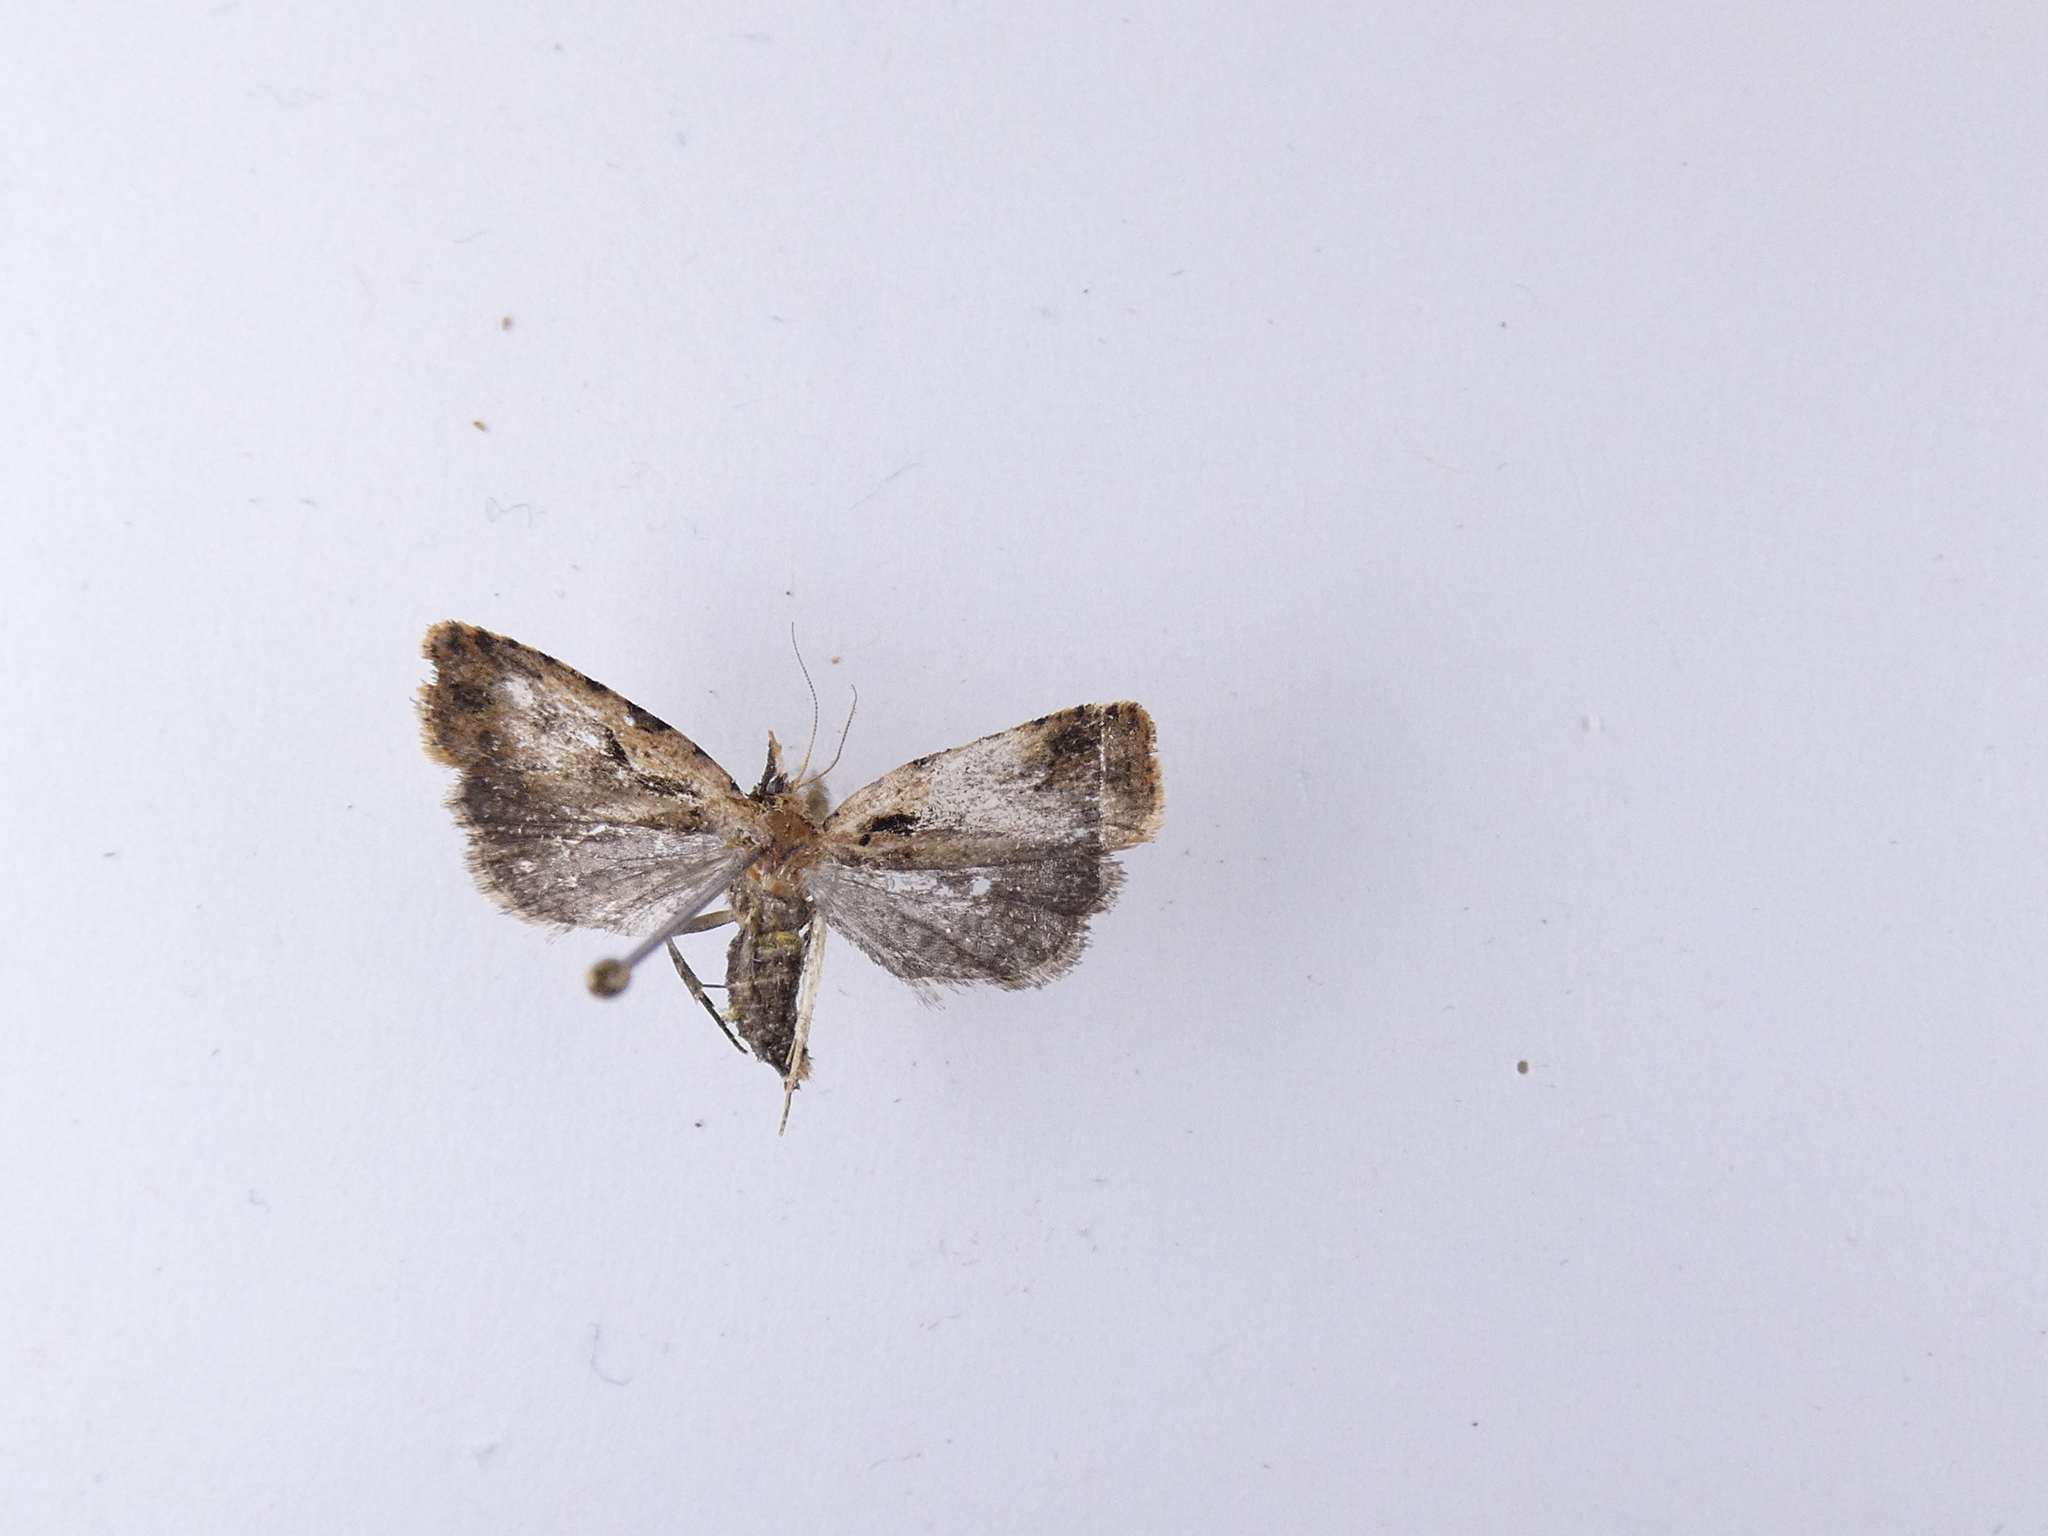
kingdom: Animalia
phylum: Arthropoda
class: Insecta
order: Lepidoptera
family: Tortricidae
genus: Cnephasia
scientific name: Cnephasia jactatana
